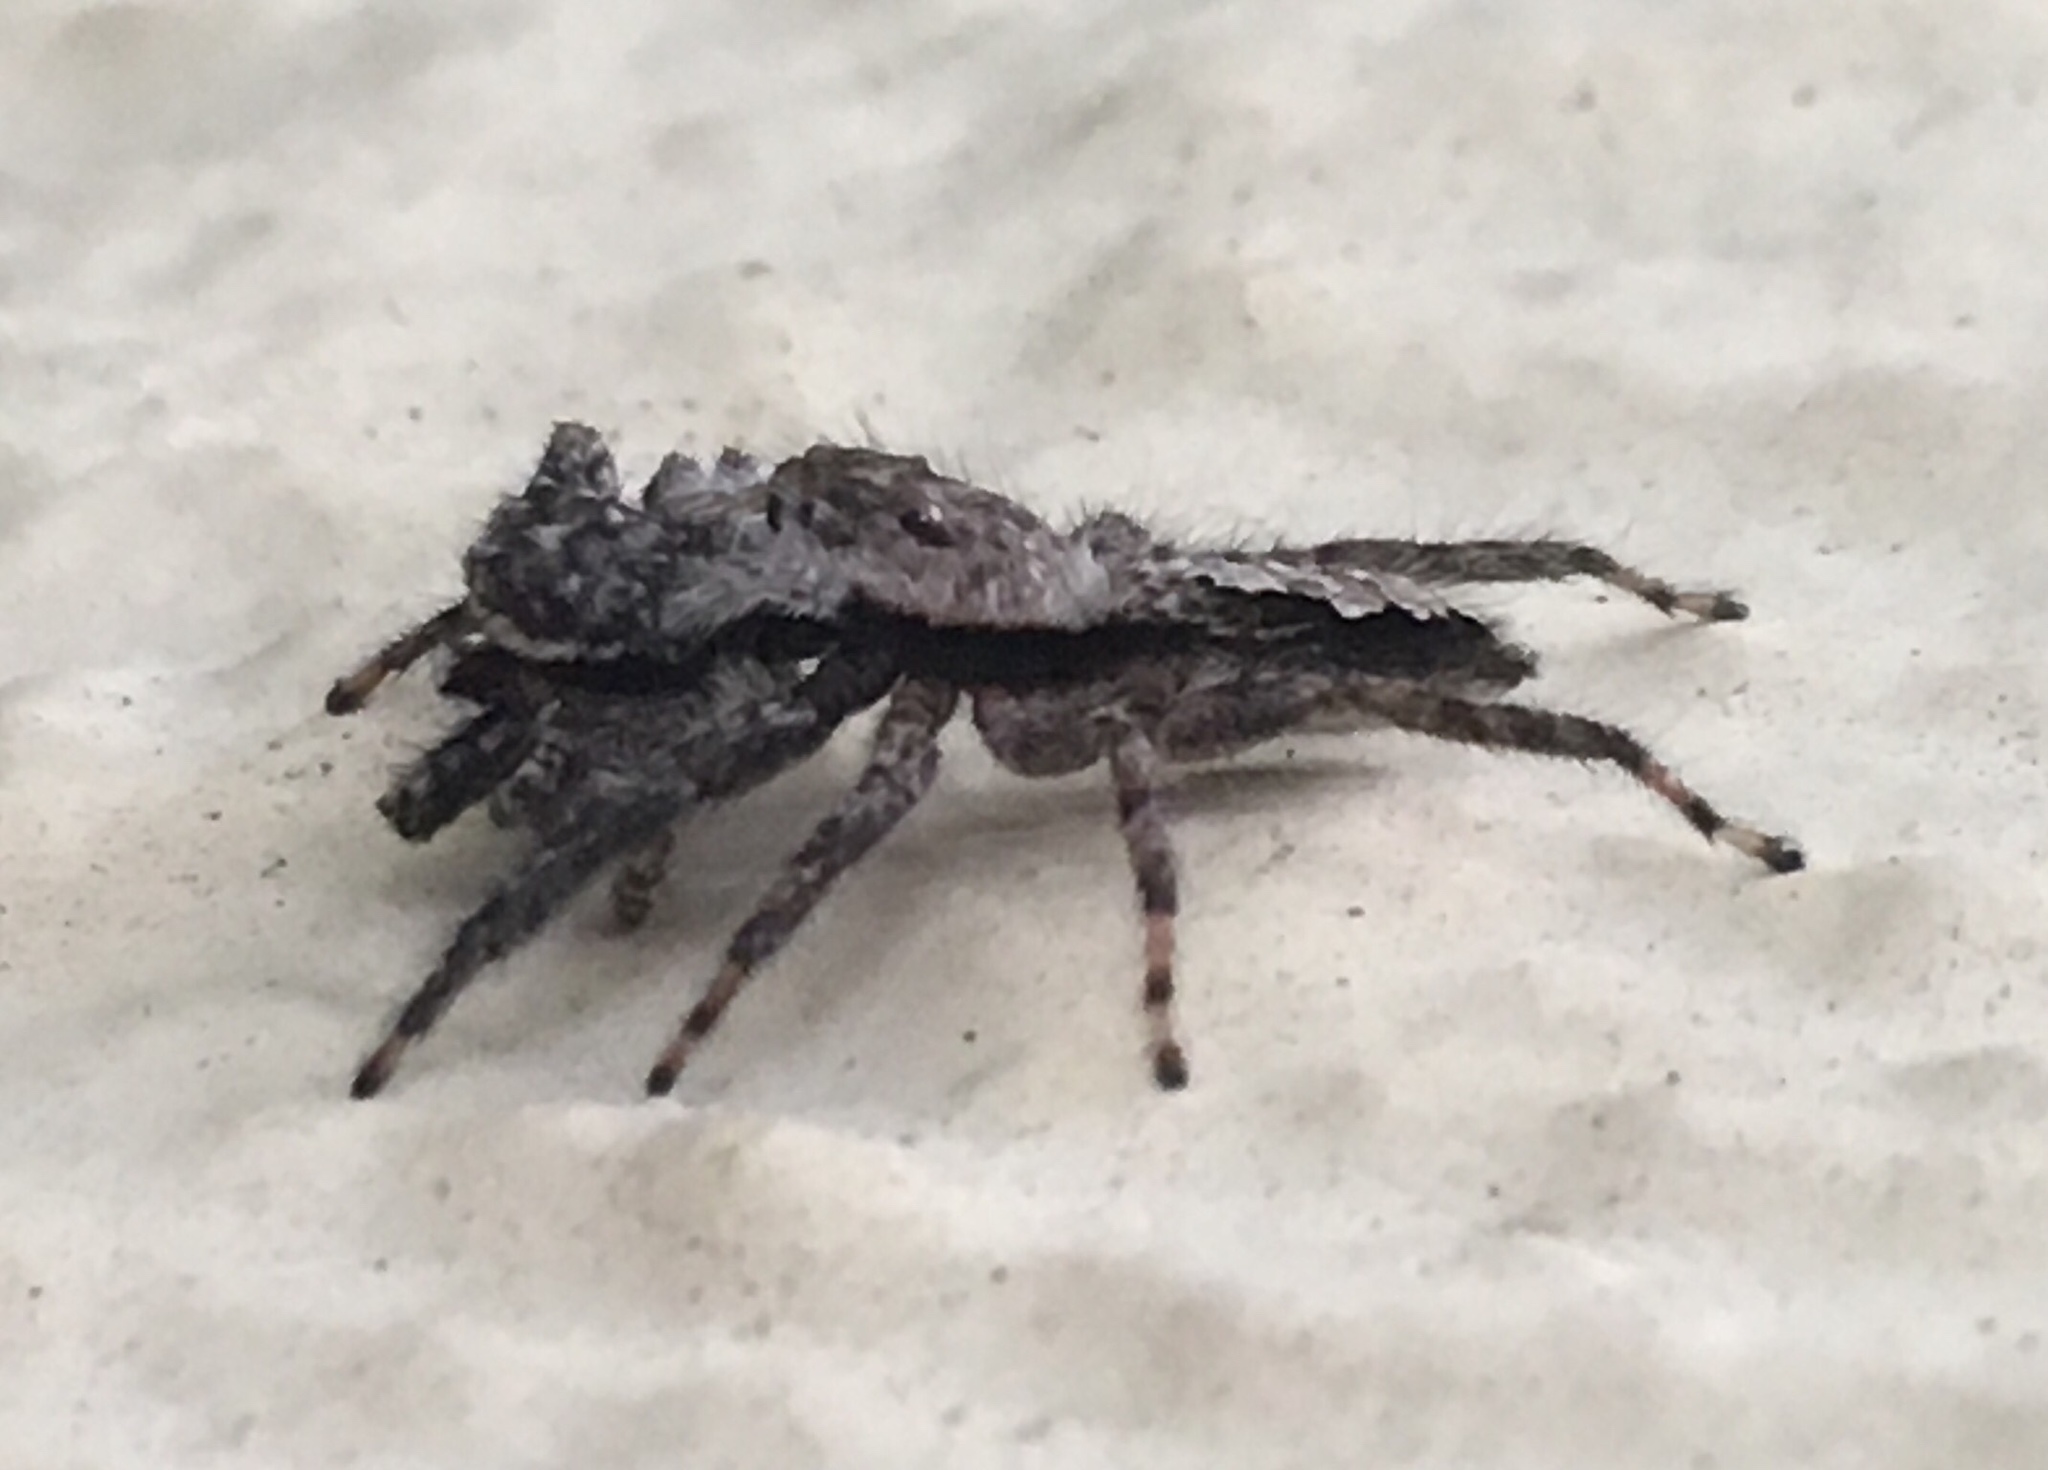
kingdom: Animalia
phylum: Arthropoda
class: Arachnida
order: Araneae
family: Salticidae
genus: Platycryptus
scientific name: Platycryptus undatus
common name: Tan jumping spider
